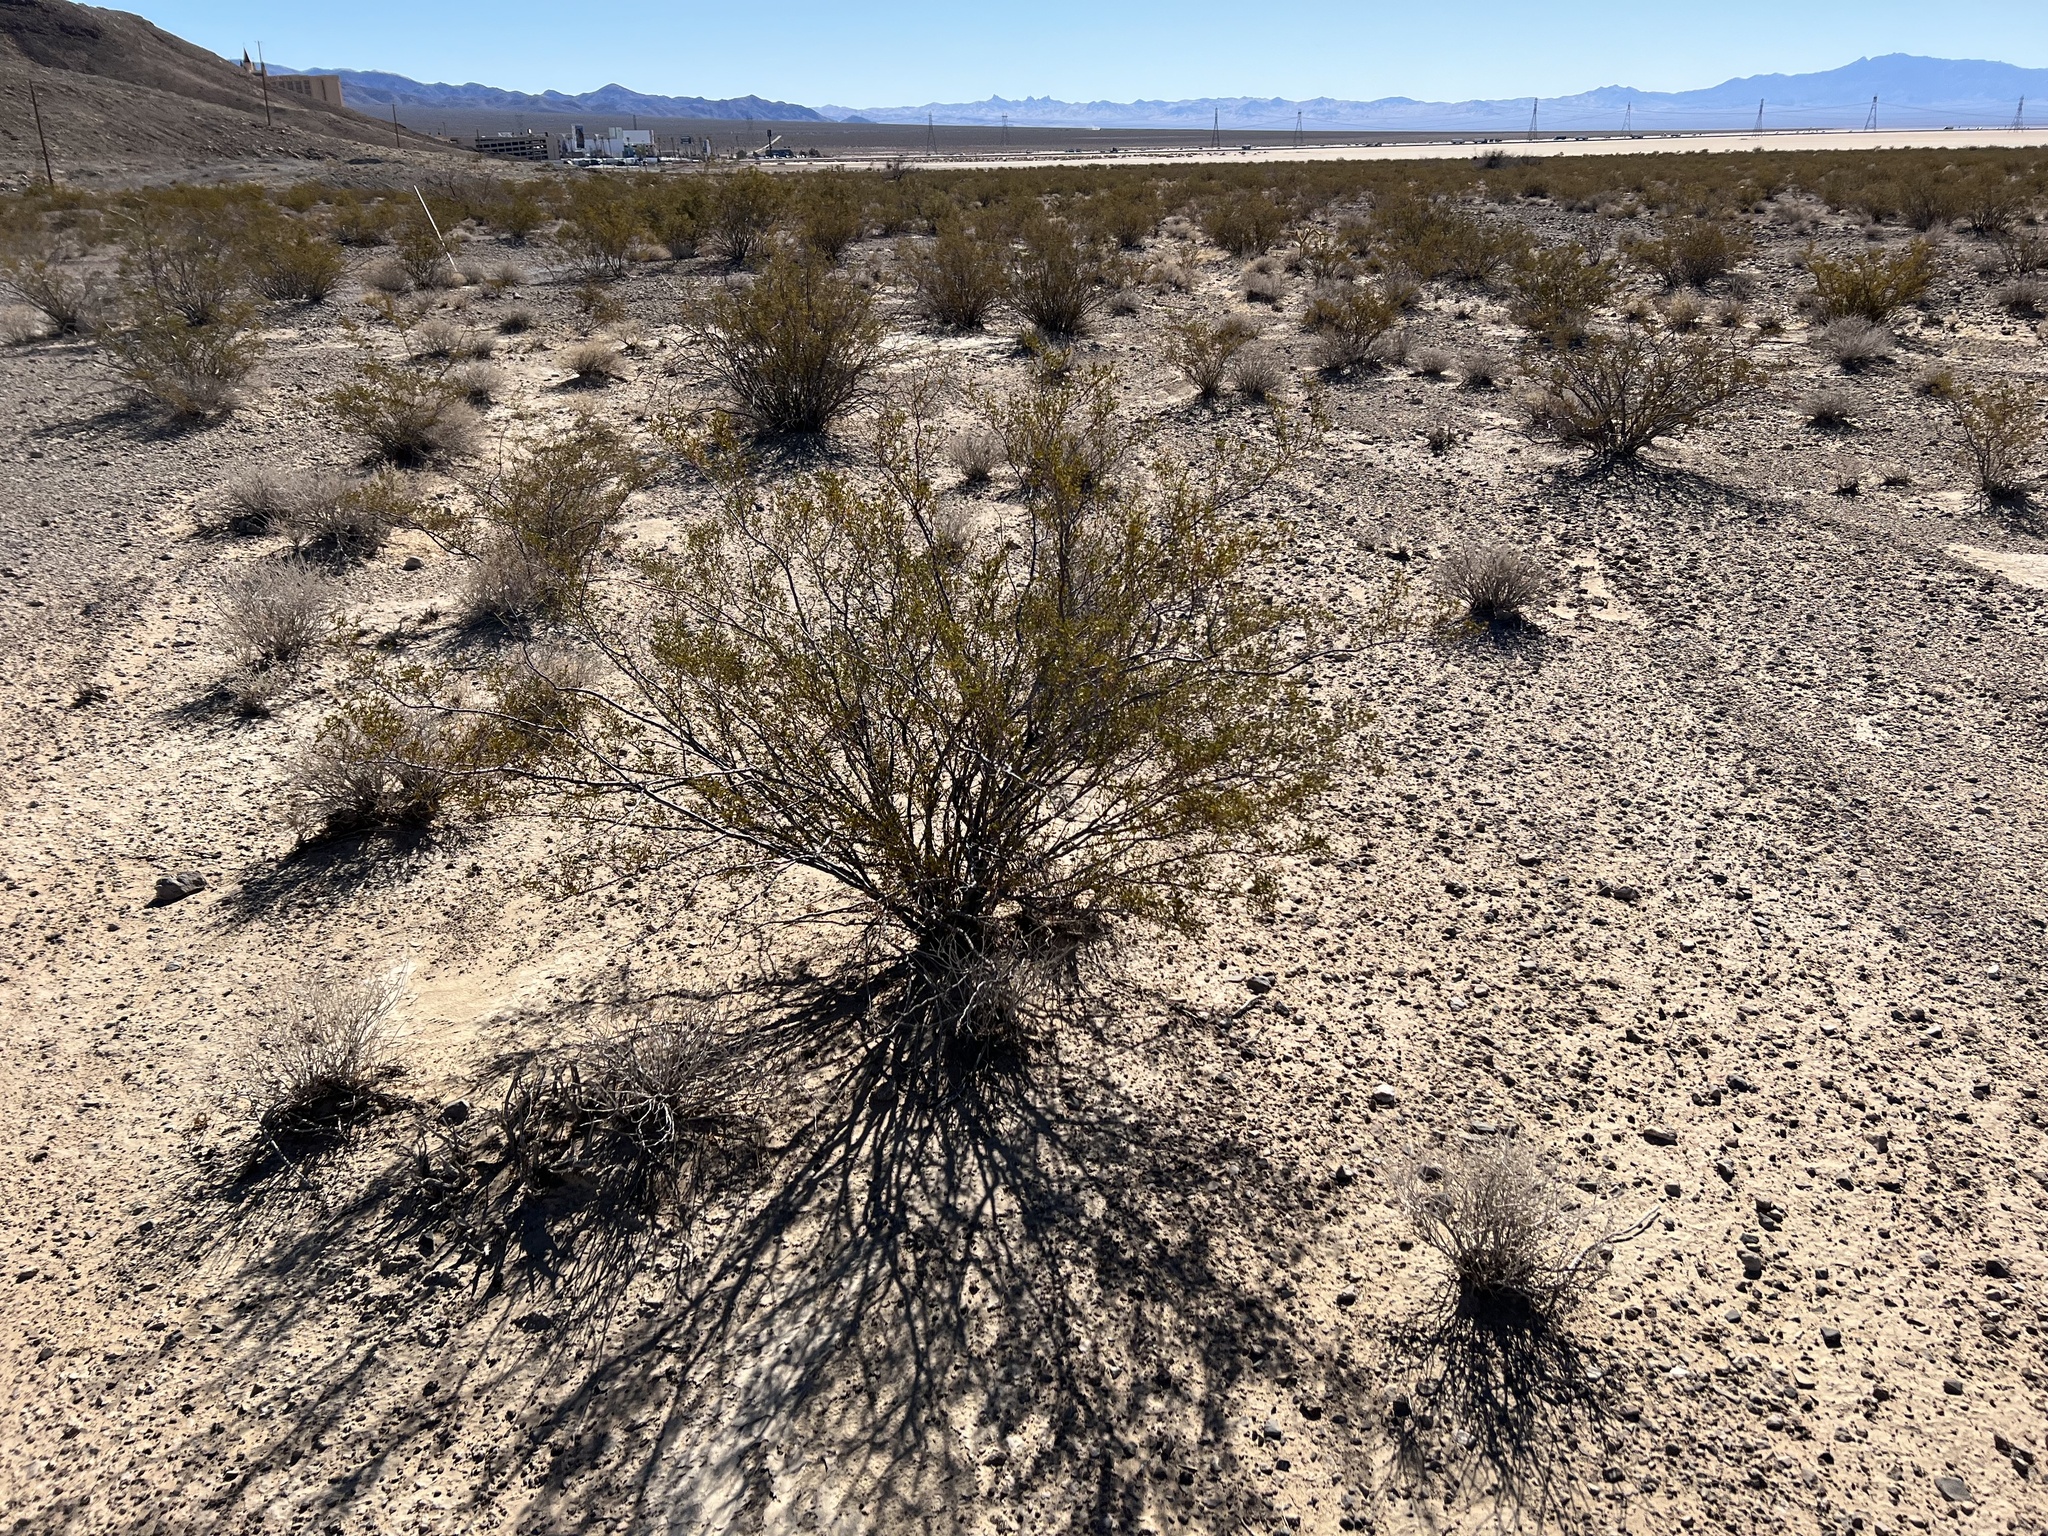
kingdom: Plantae
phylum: Tracheophyta
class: Magnoliopsida
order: Zygophyllales
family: Zygophyllaceae
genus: Larrea
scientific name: Larrea tridentata
